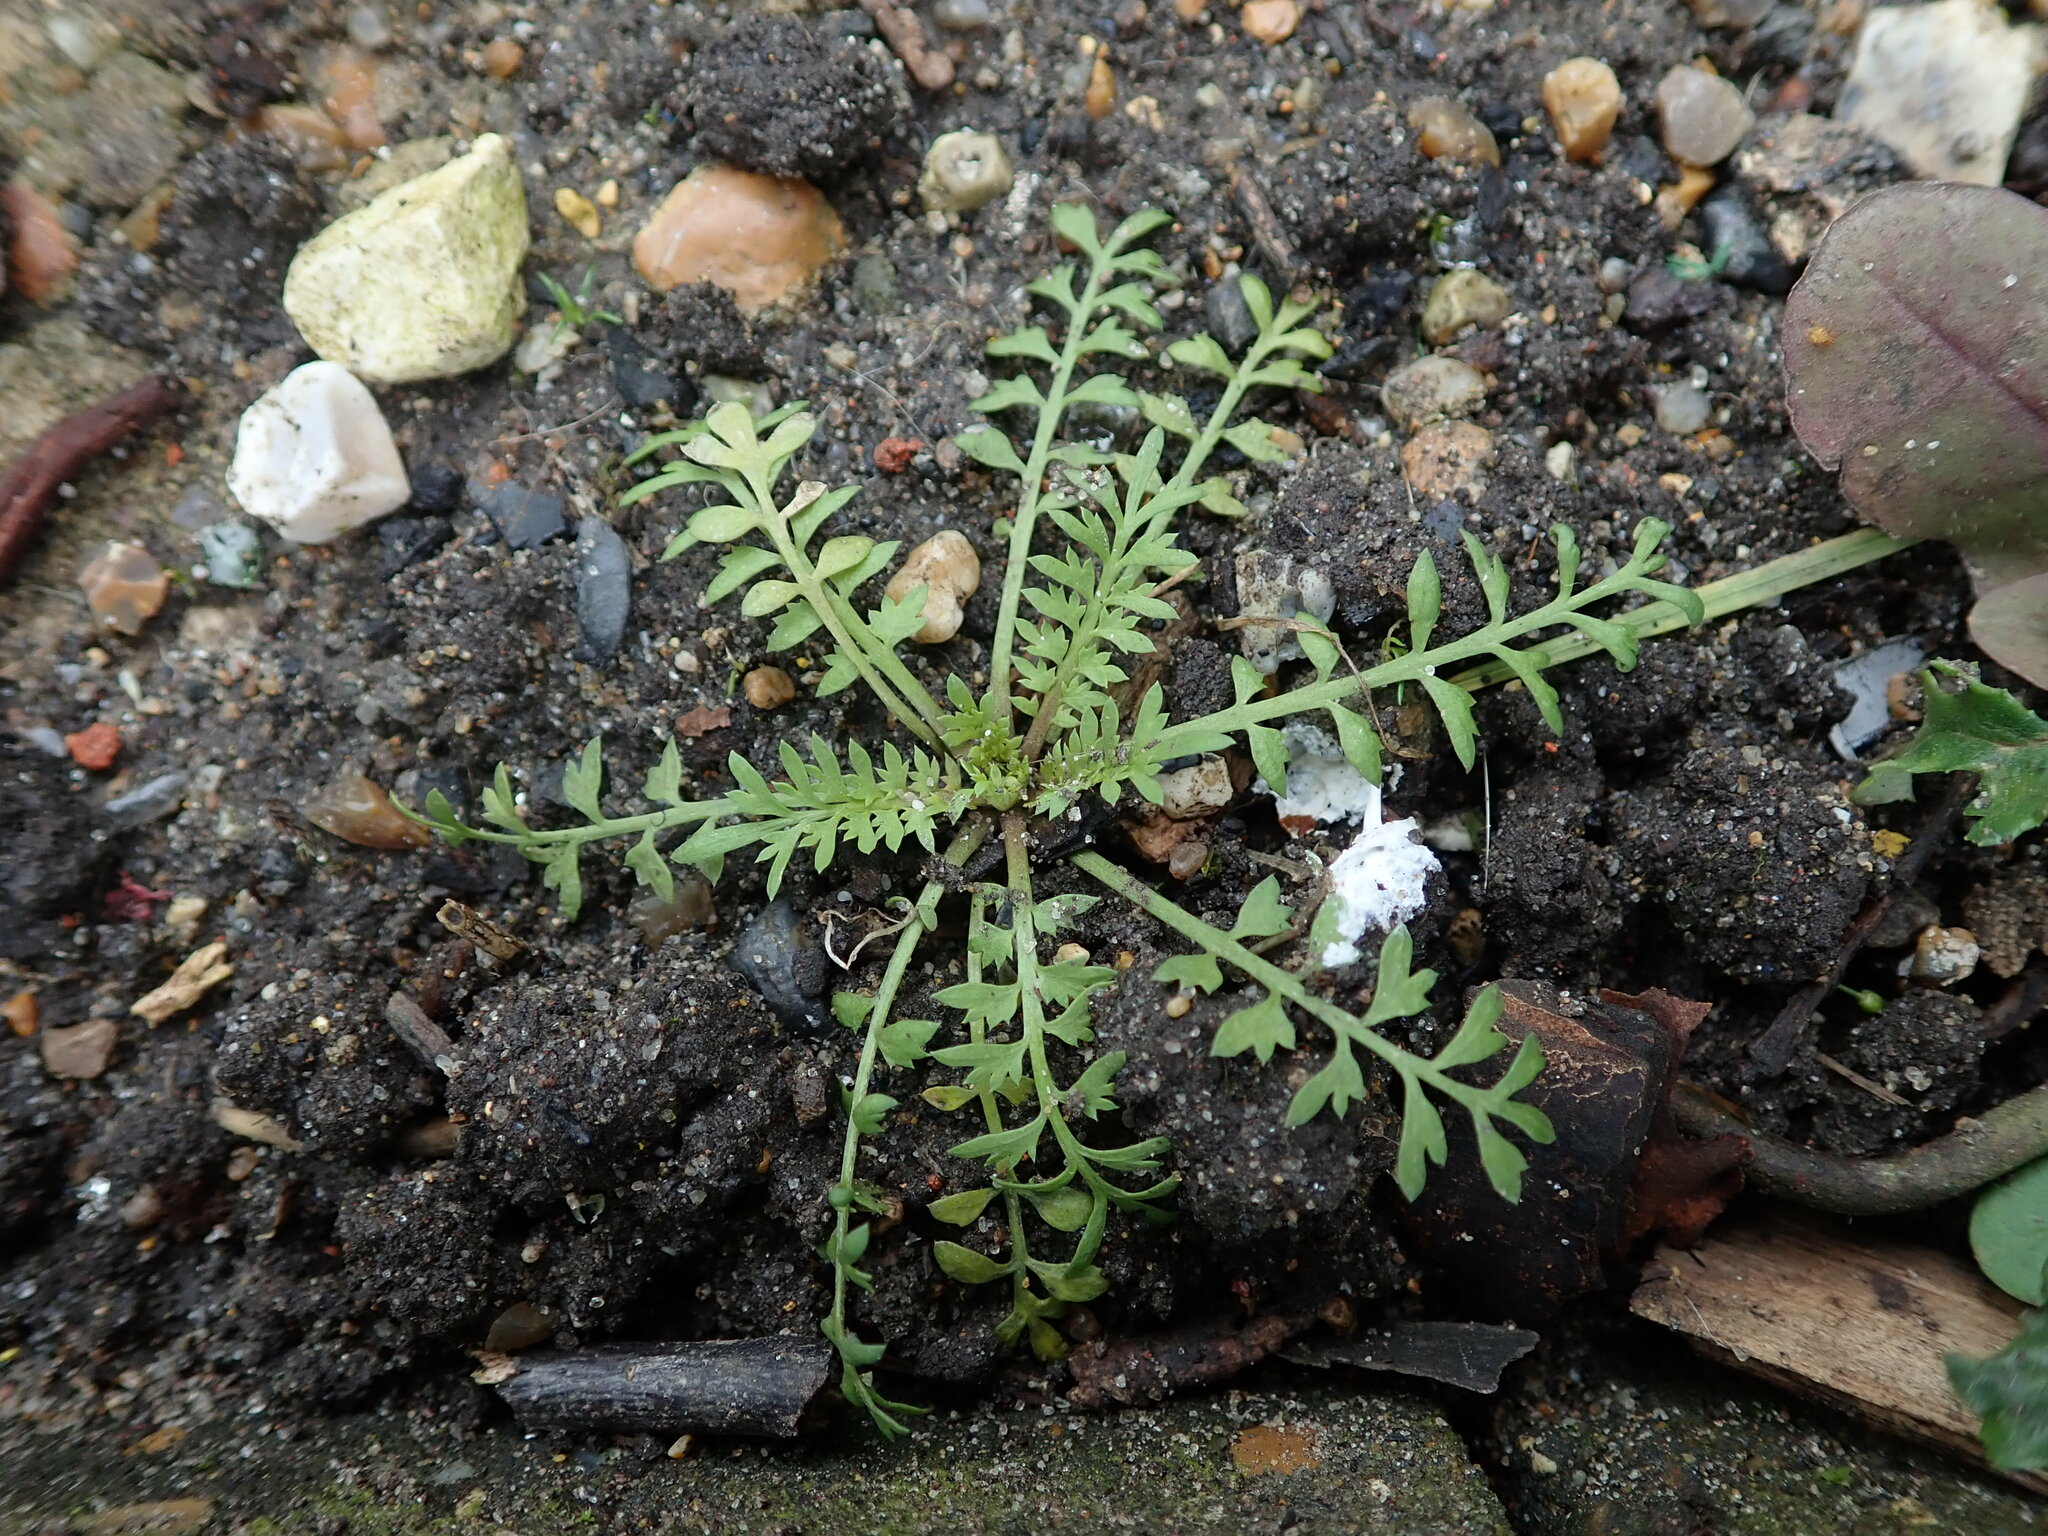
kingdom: Plantae
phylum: Tracheophyta
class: Magnoliopsida
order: Brassicales
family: Brassicaceae
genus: Lepidium
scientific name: Lepidium didymum
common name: Lesser swinecress
